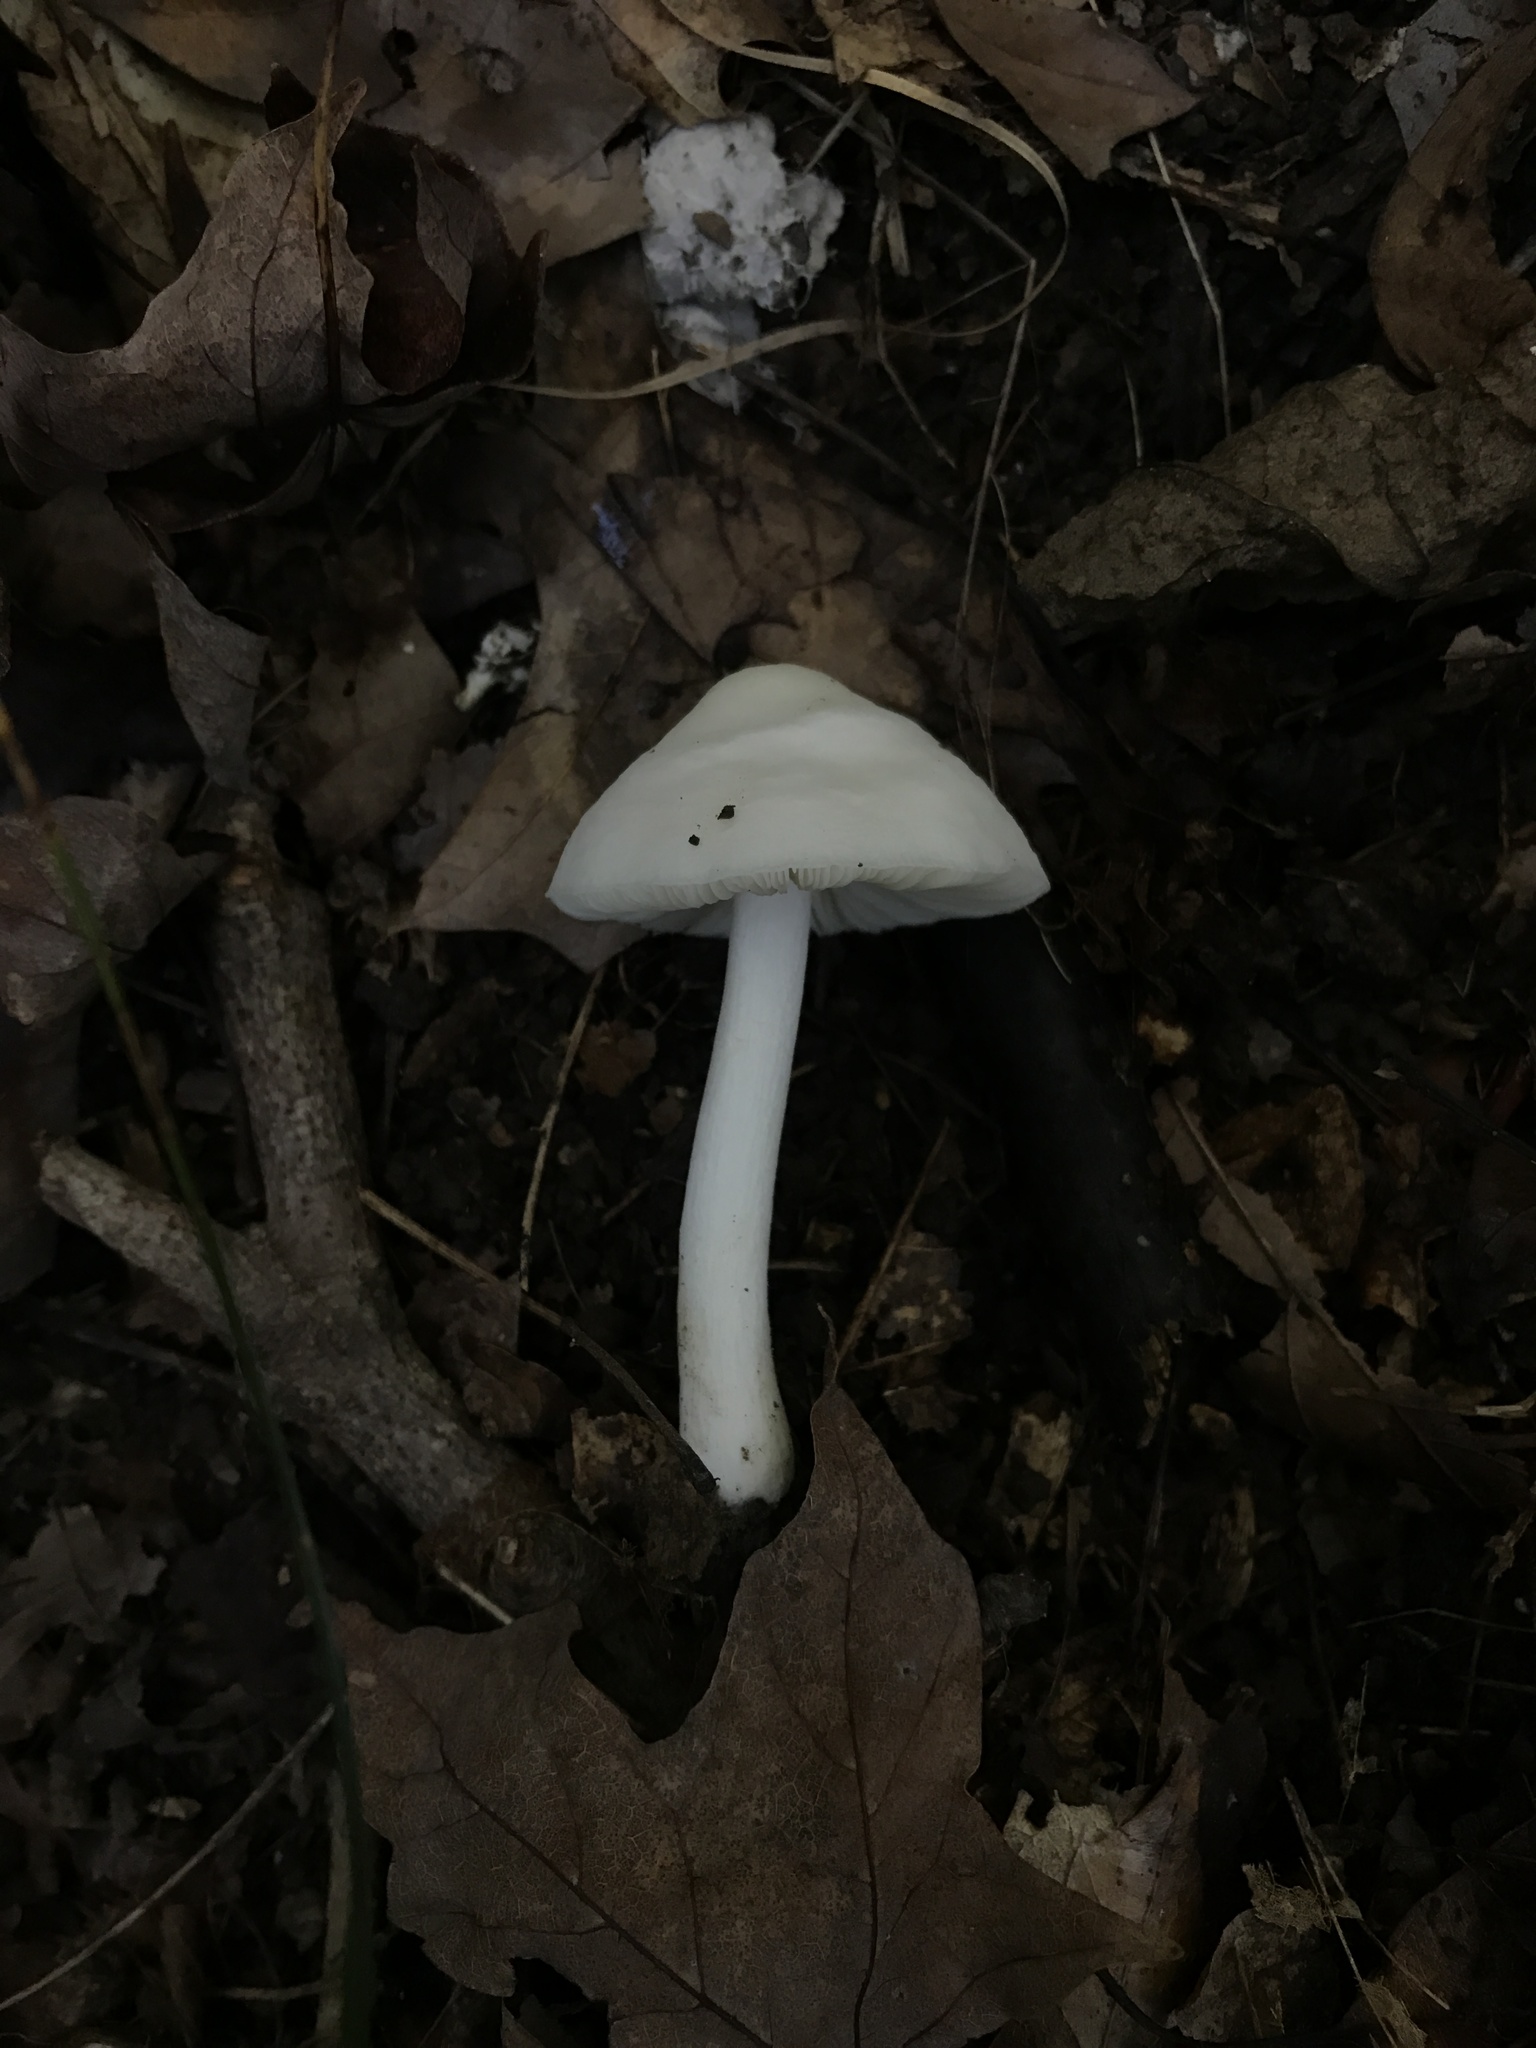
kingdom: Fungi
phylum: Basidiomycota
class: Agaricomycetes
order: Agaricales
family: Pluteaceae
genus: Pluteus
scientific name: Pluteus pellitus
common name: Ghost shield
